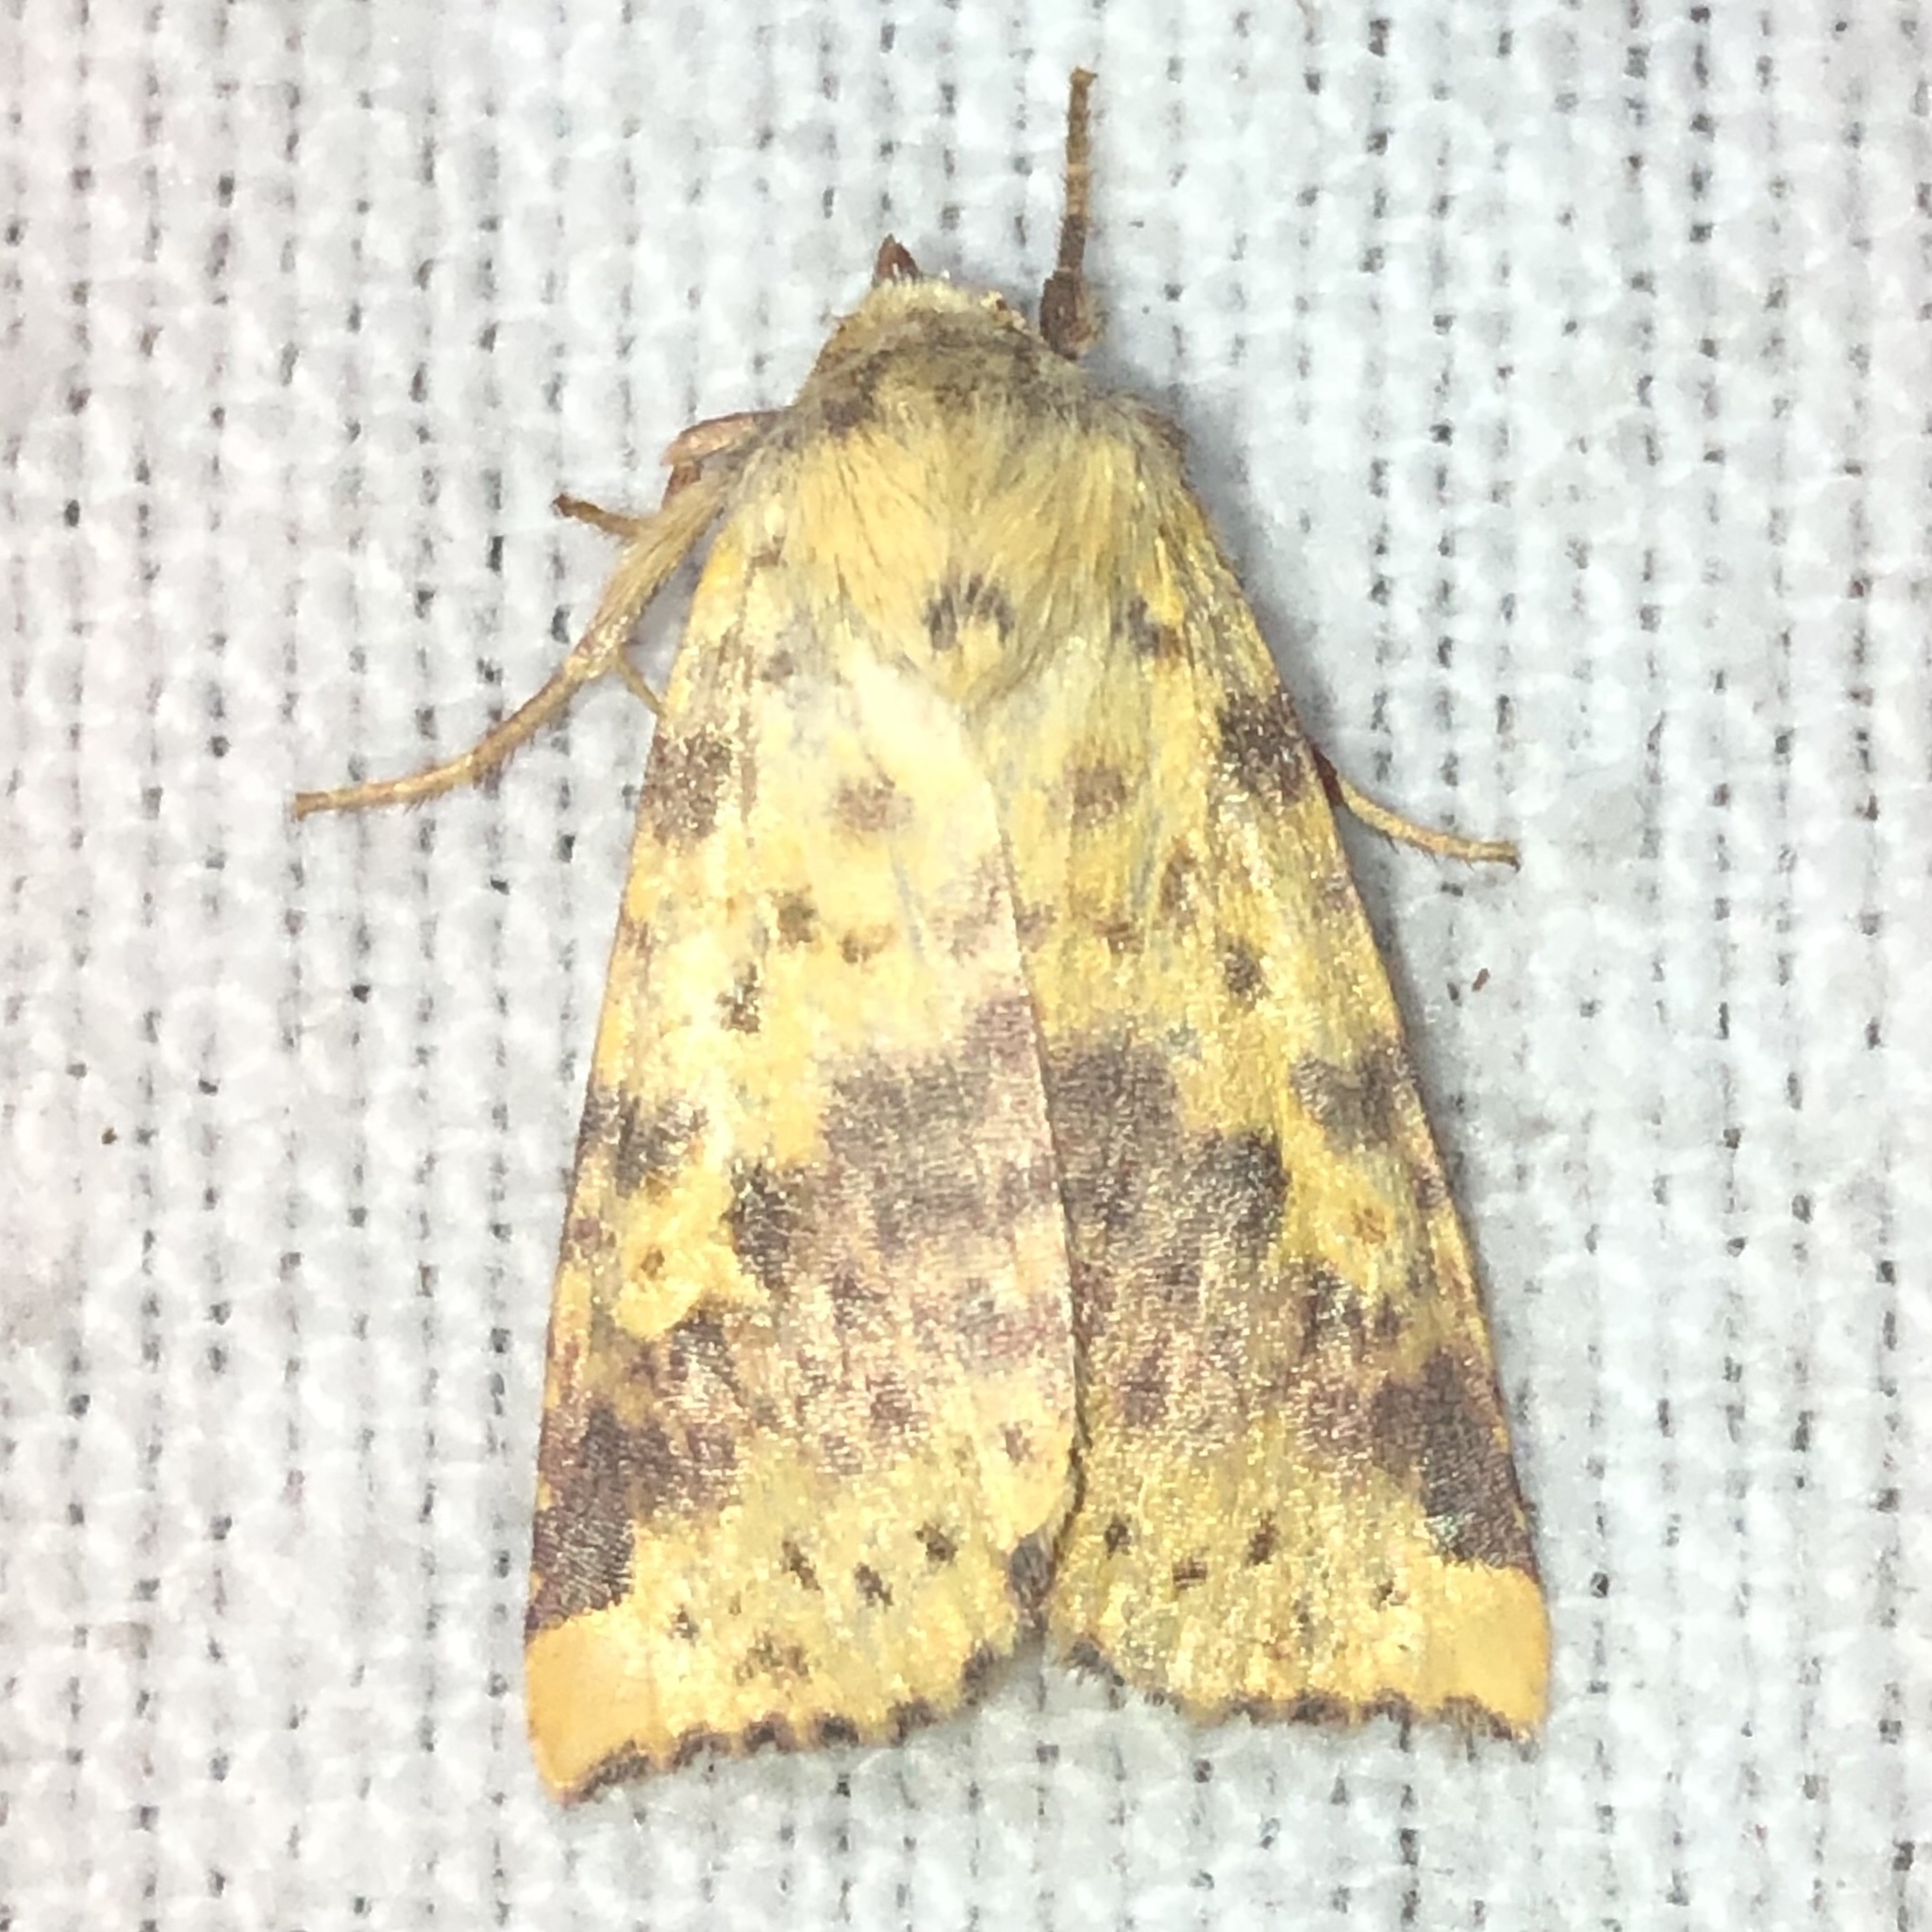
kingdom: Animalia
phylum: Arthropoda
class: Insecta
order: Lepidoptera
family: Noctuidae
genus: Xanthia
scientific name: Xanthia tatago
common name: Pink-banded sallow
